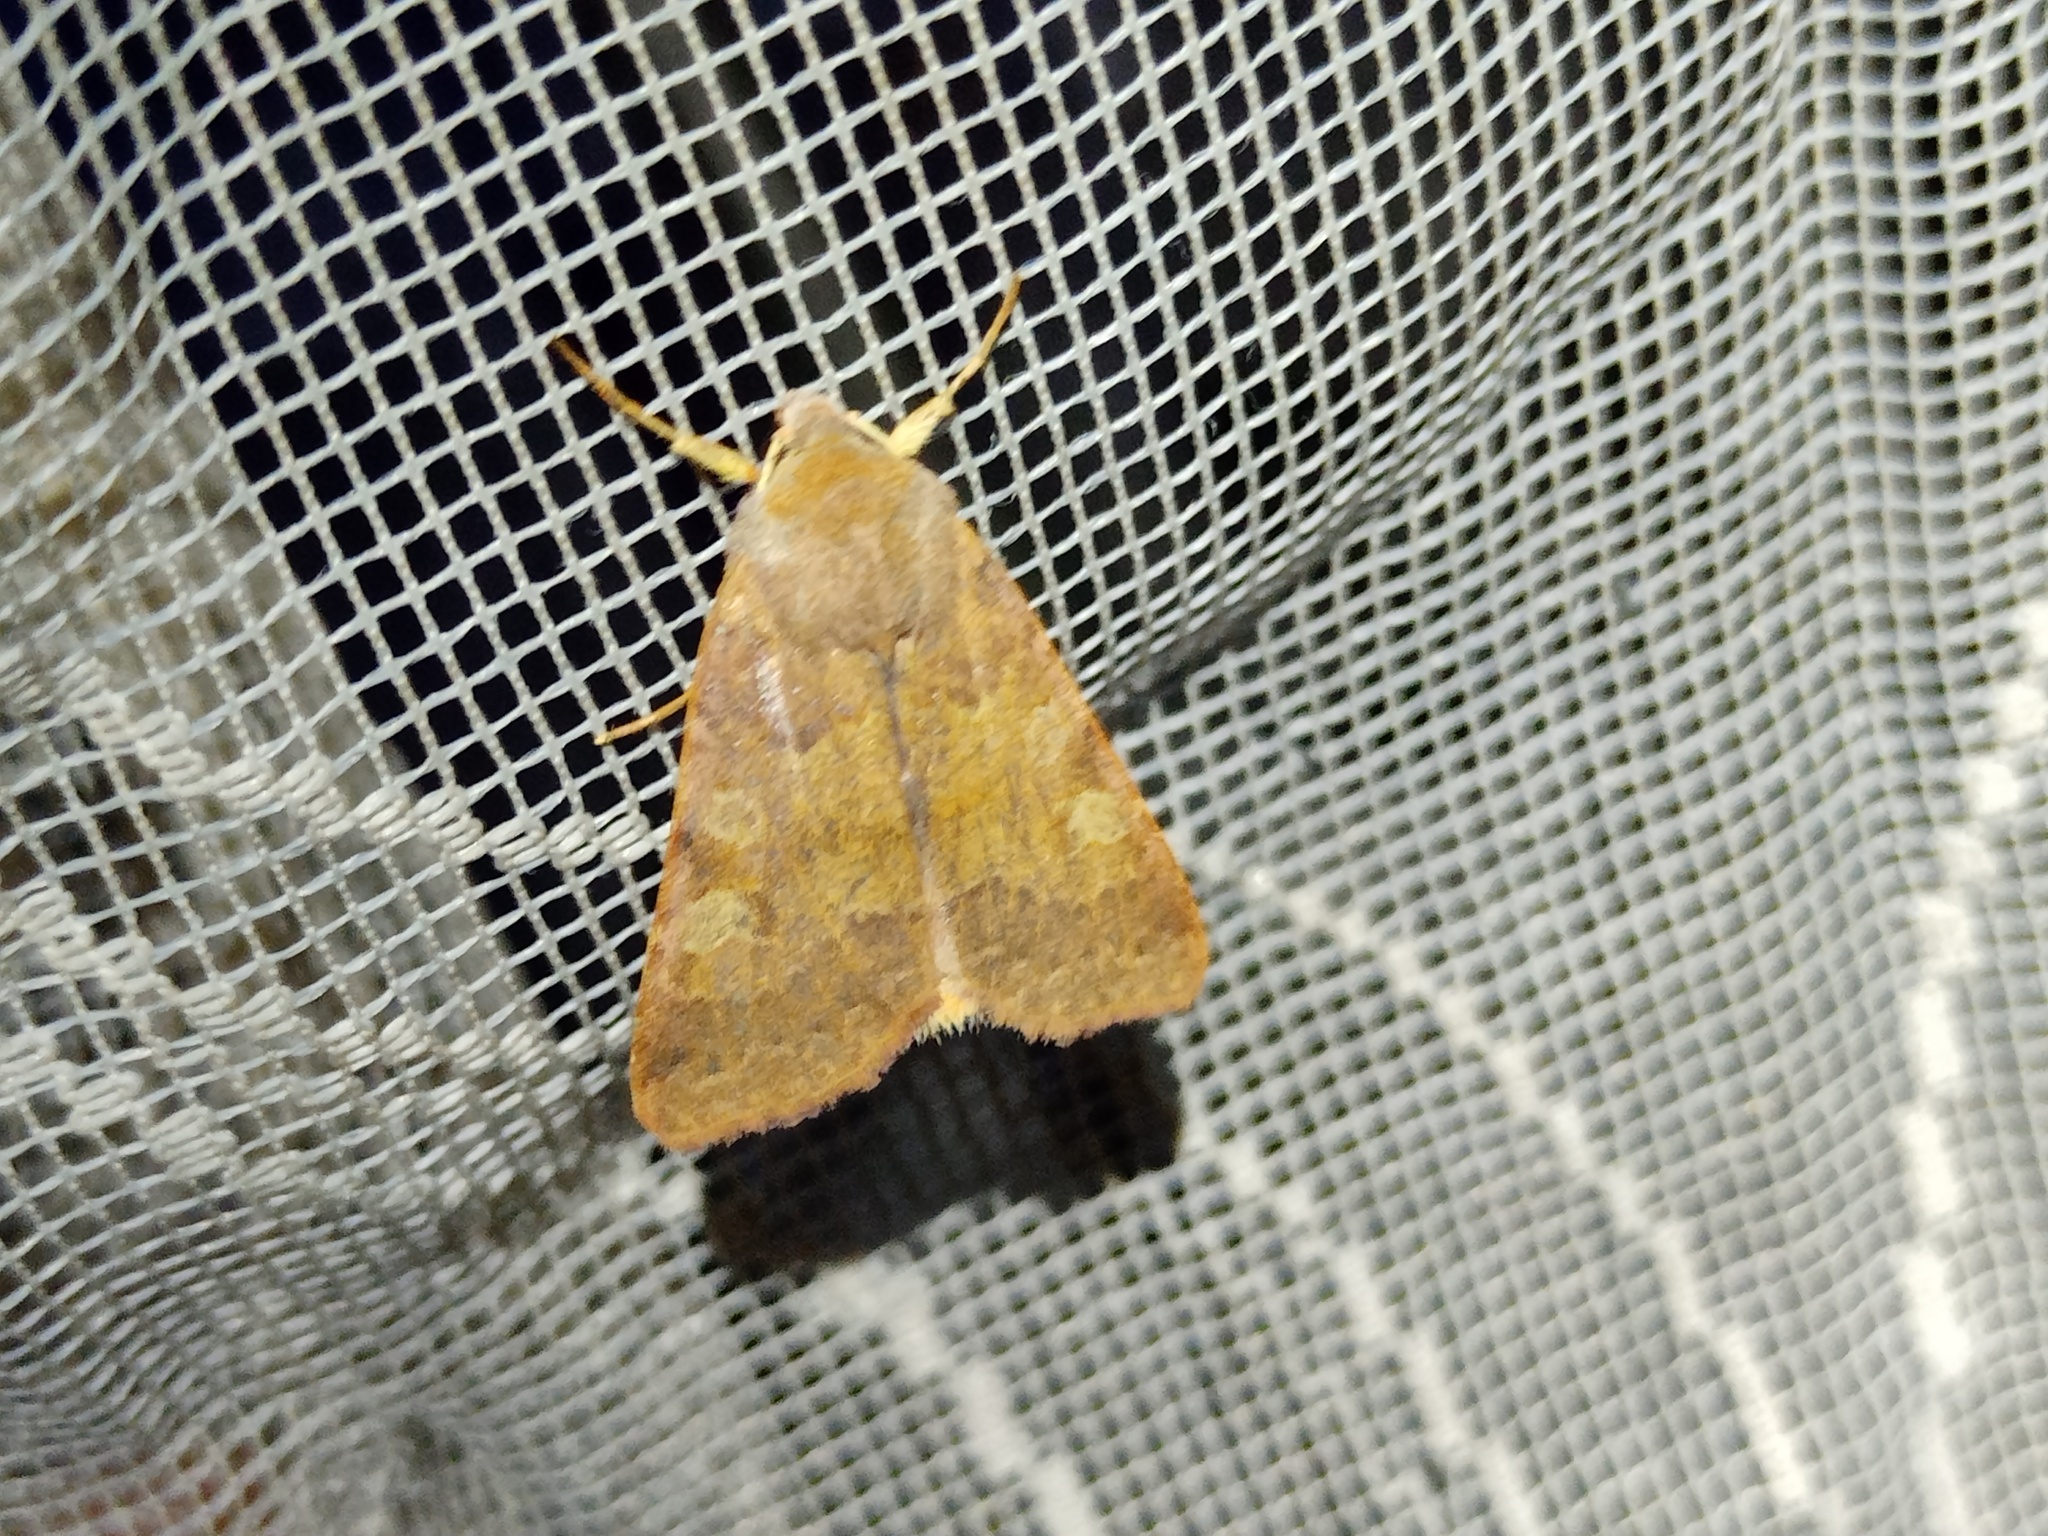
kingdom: Animalia
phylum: Arthropoda
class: Insecta
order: Lepidoptera
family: Noctuidae
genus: Agrochola
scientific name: Agrochola helvola
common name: Flounced chestnut
